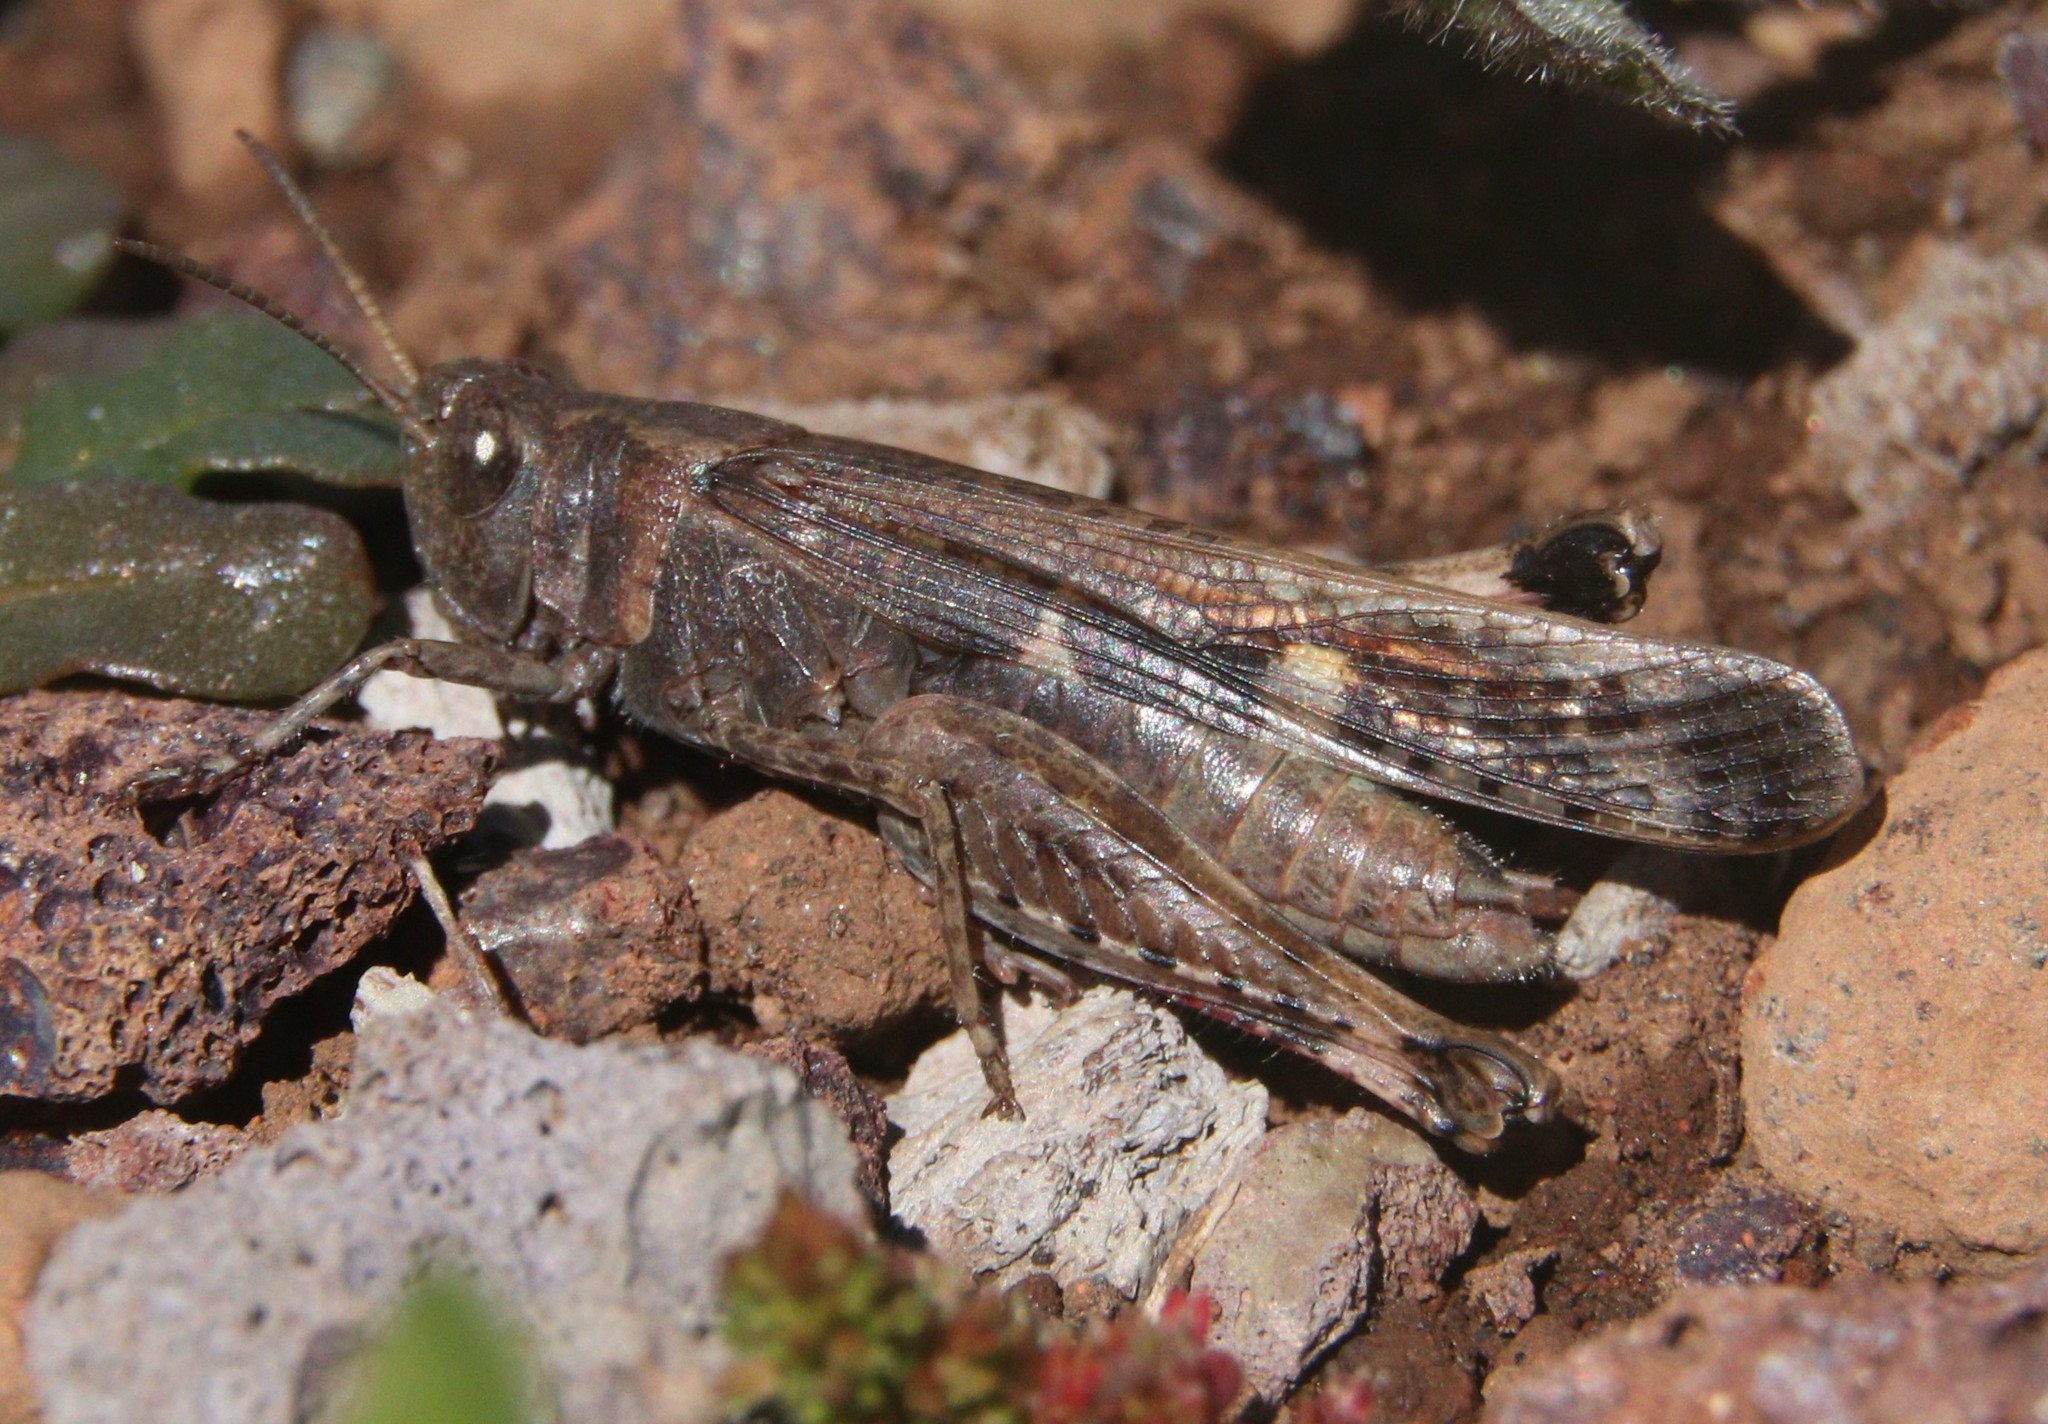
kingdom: Animalia
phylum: Arthropoda
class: Insecta
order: Orthoptera
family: Acrididae
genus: Aiolopus
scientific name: Aiolopus strepens
